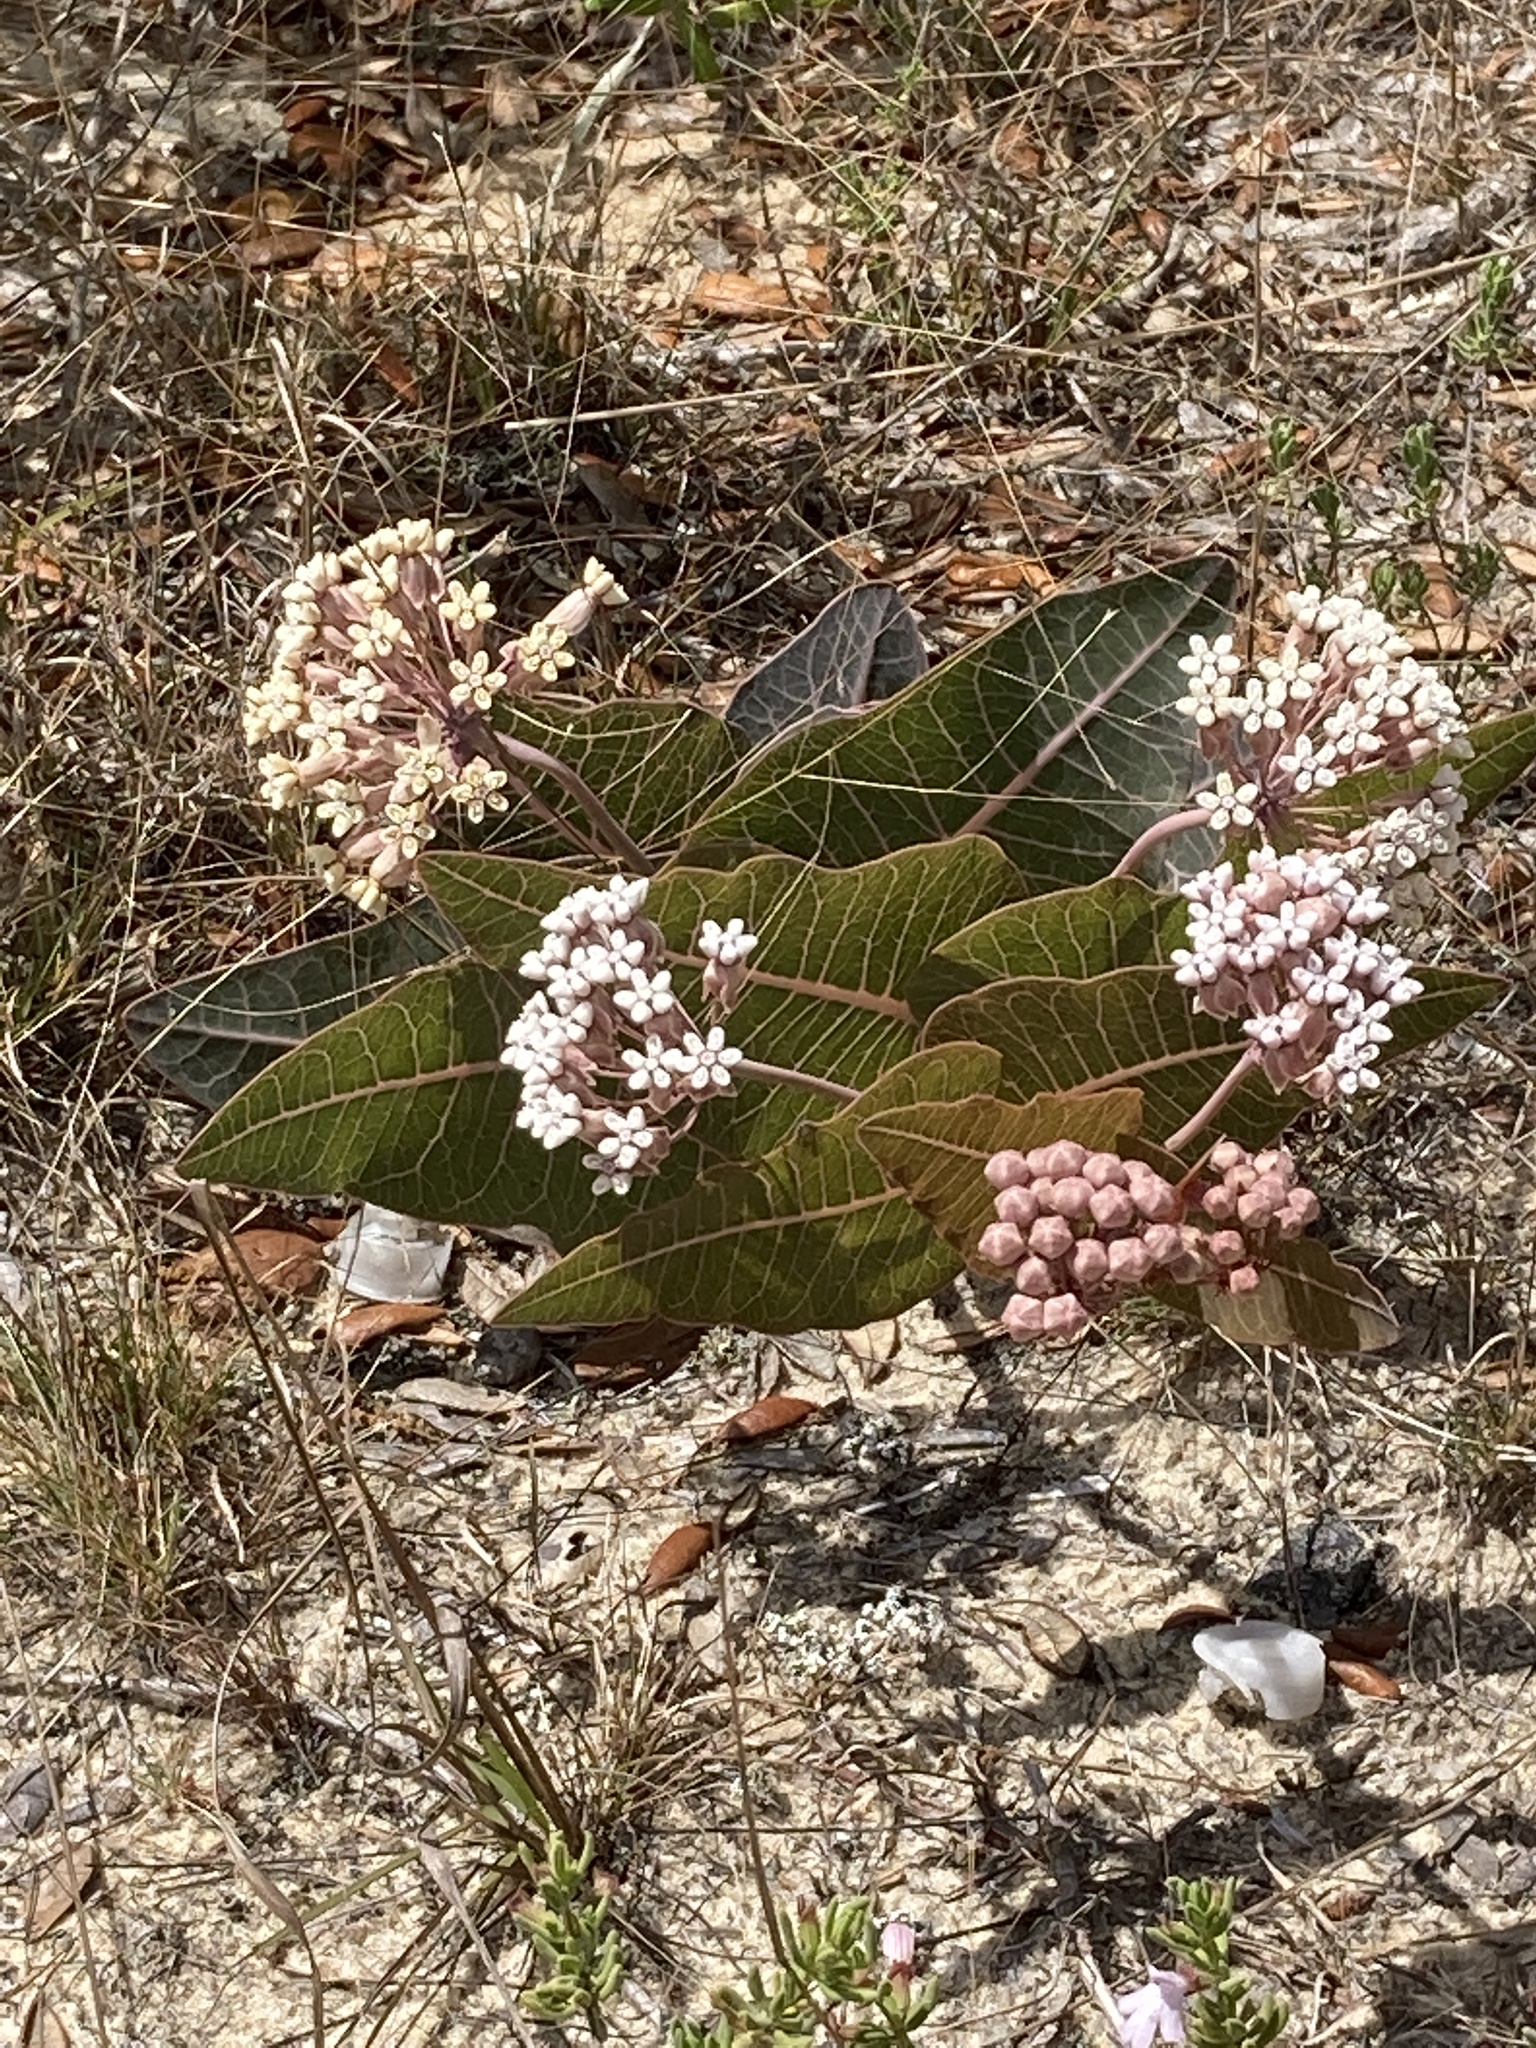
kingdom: Plantae
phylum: Tracheophyta
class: Magnoliopsida
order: Gentianales
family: Apocynaceae
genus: Asclepias
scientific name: Asclepias humistrata
